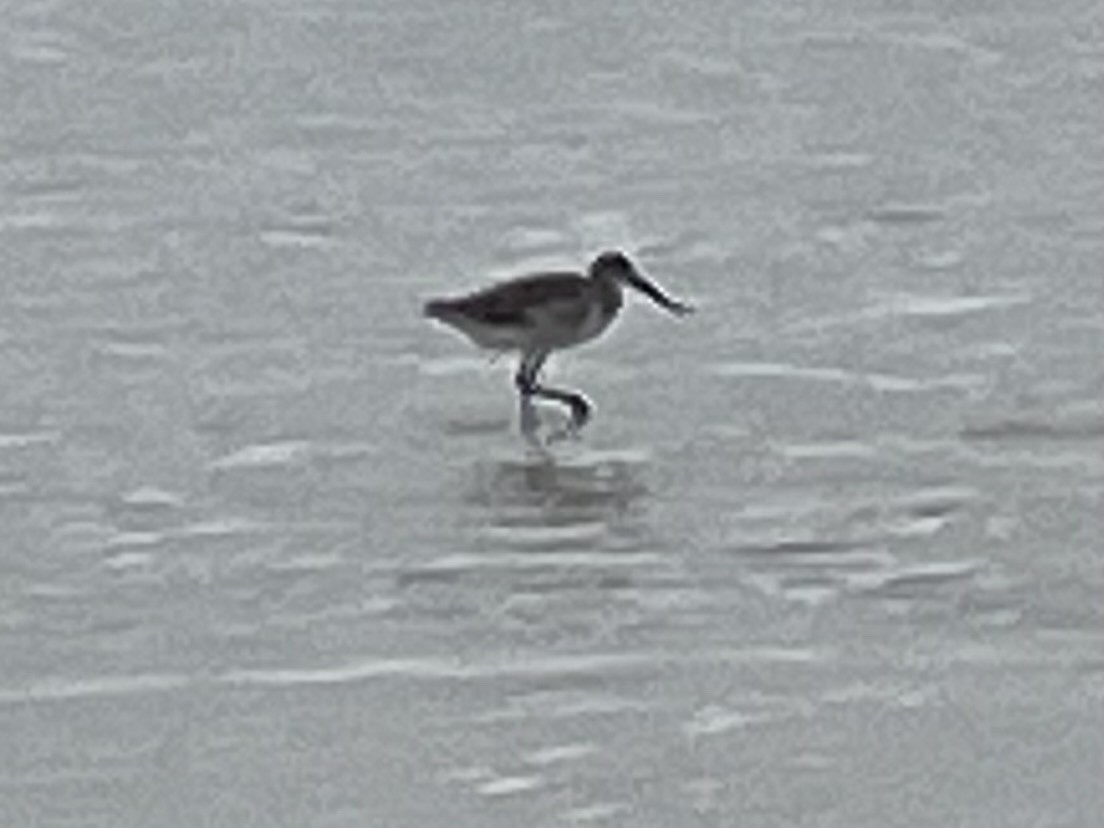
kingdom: Animalia
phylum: Chordata
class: Aves
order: Charadriiformes
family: Scolopacidae
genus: Tringa
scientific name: Tringa semipalmata
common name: Willet
